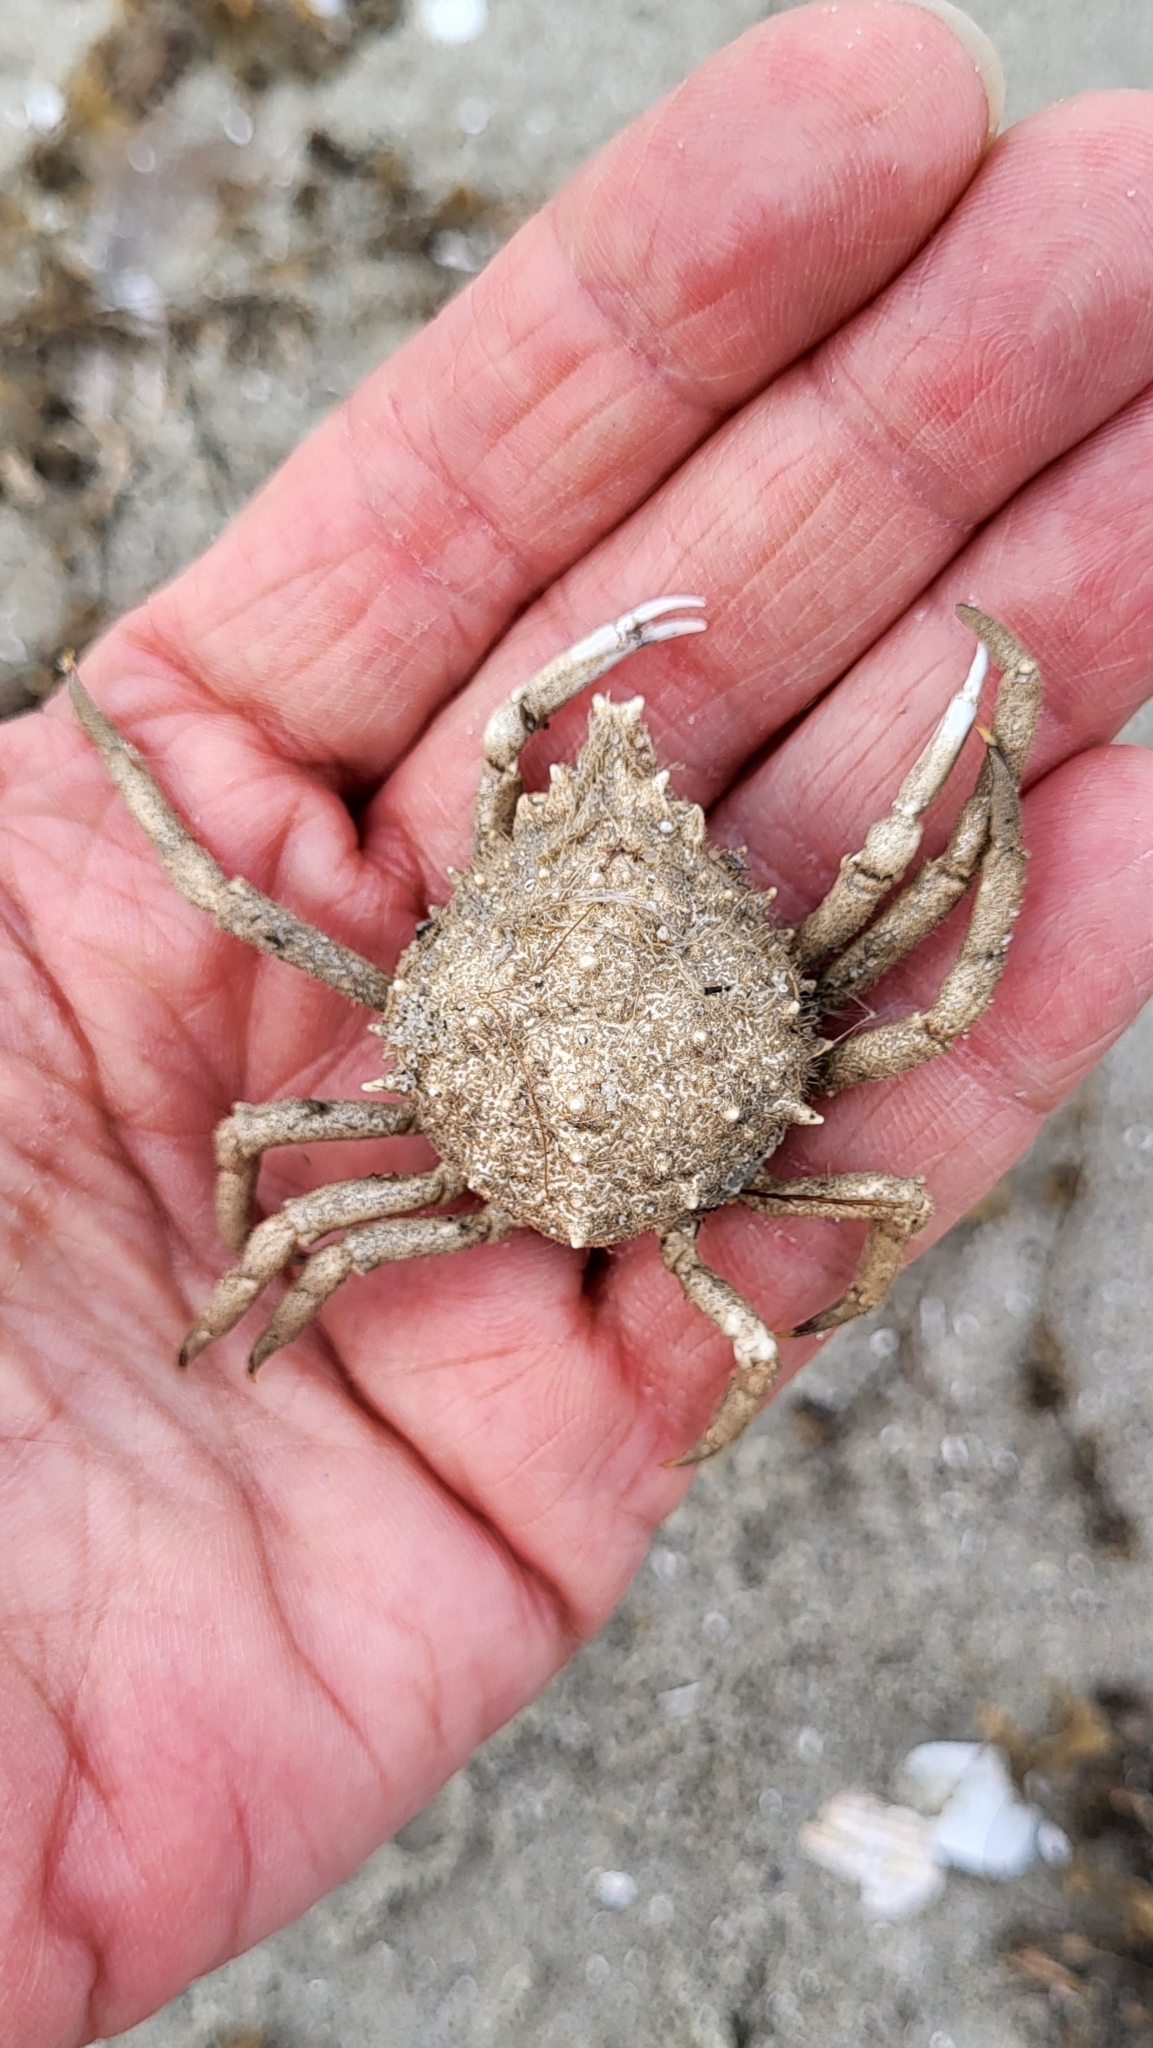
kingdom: Animalia
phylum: Arthropoda
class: Malacostraca
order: Decapoda
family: Epialtidae
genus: Libinia
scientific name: Libinia emarginata
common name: Common spider crab
